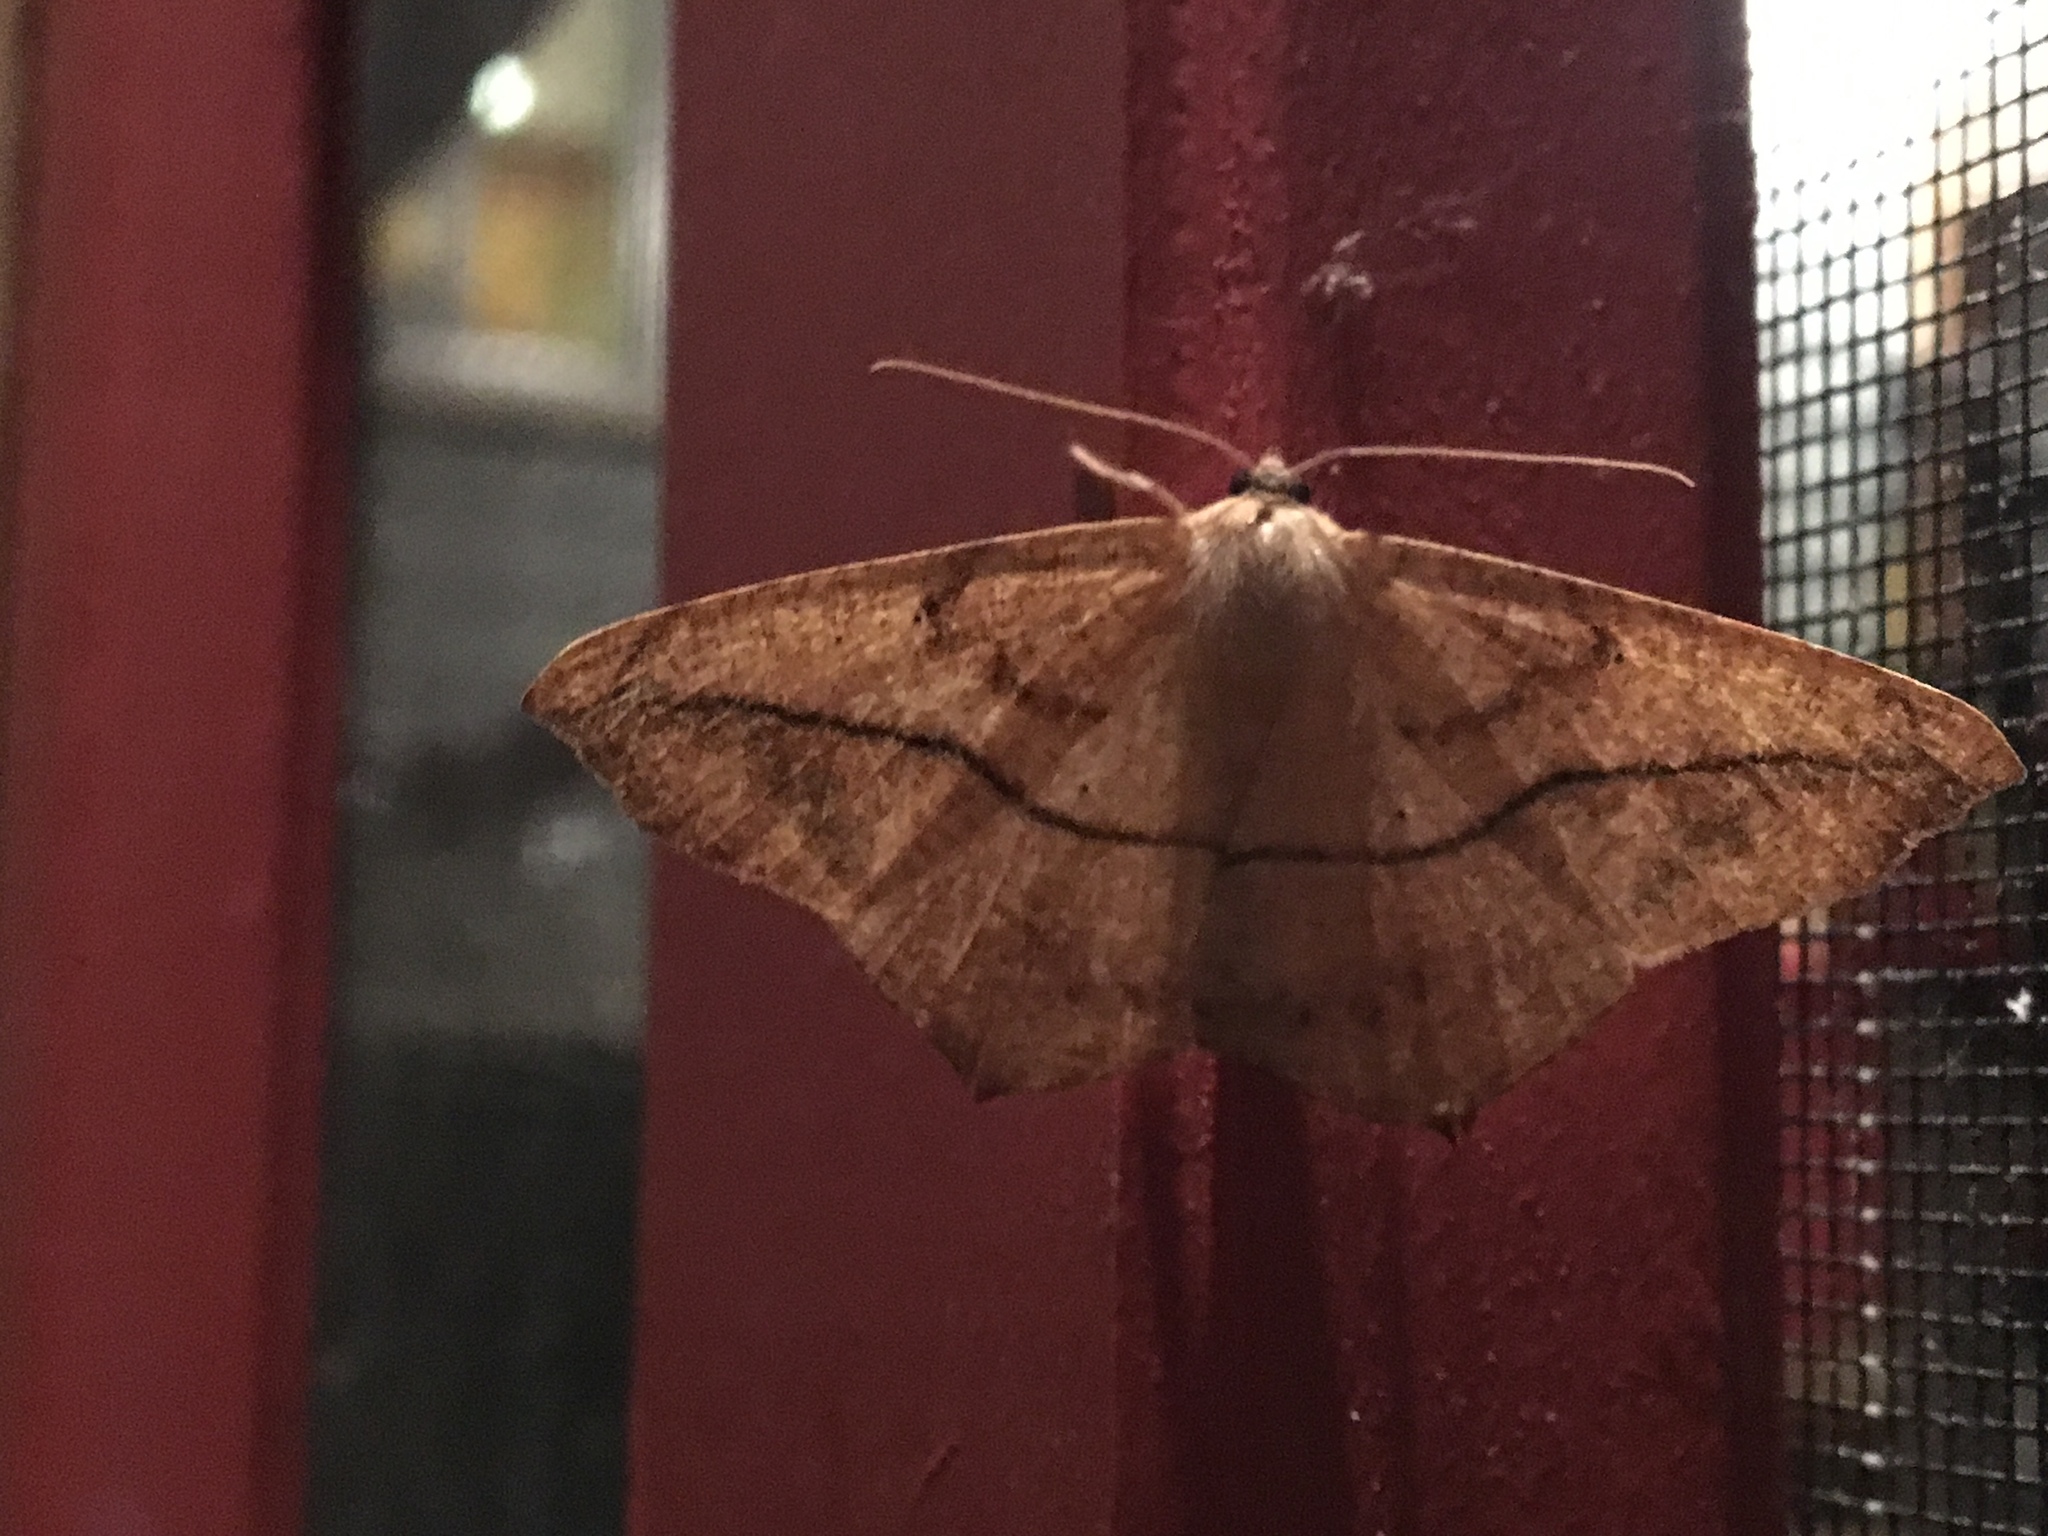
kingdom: Animalia
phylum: Arthropoda
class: Insecta
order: Lepidoptera
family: Geometridae
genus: Prochoerodes
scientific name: Prochoerodes lineola
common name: Large maple spanworm
